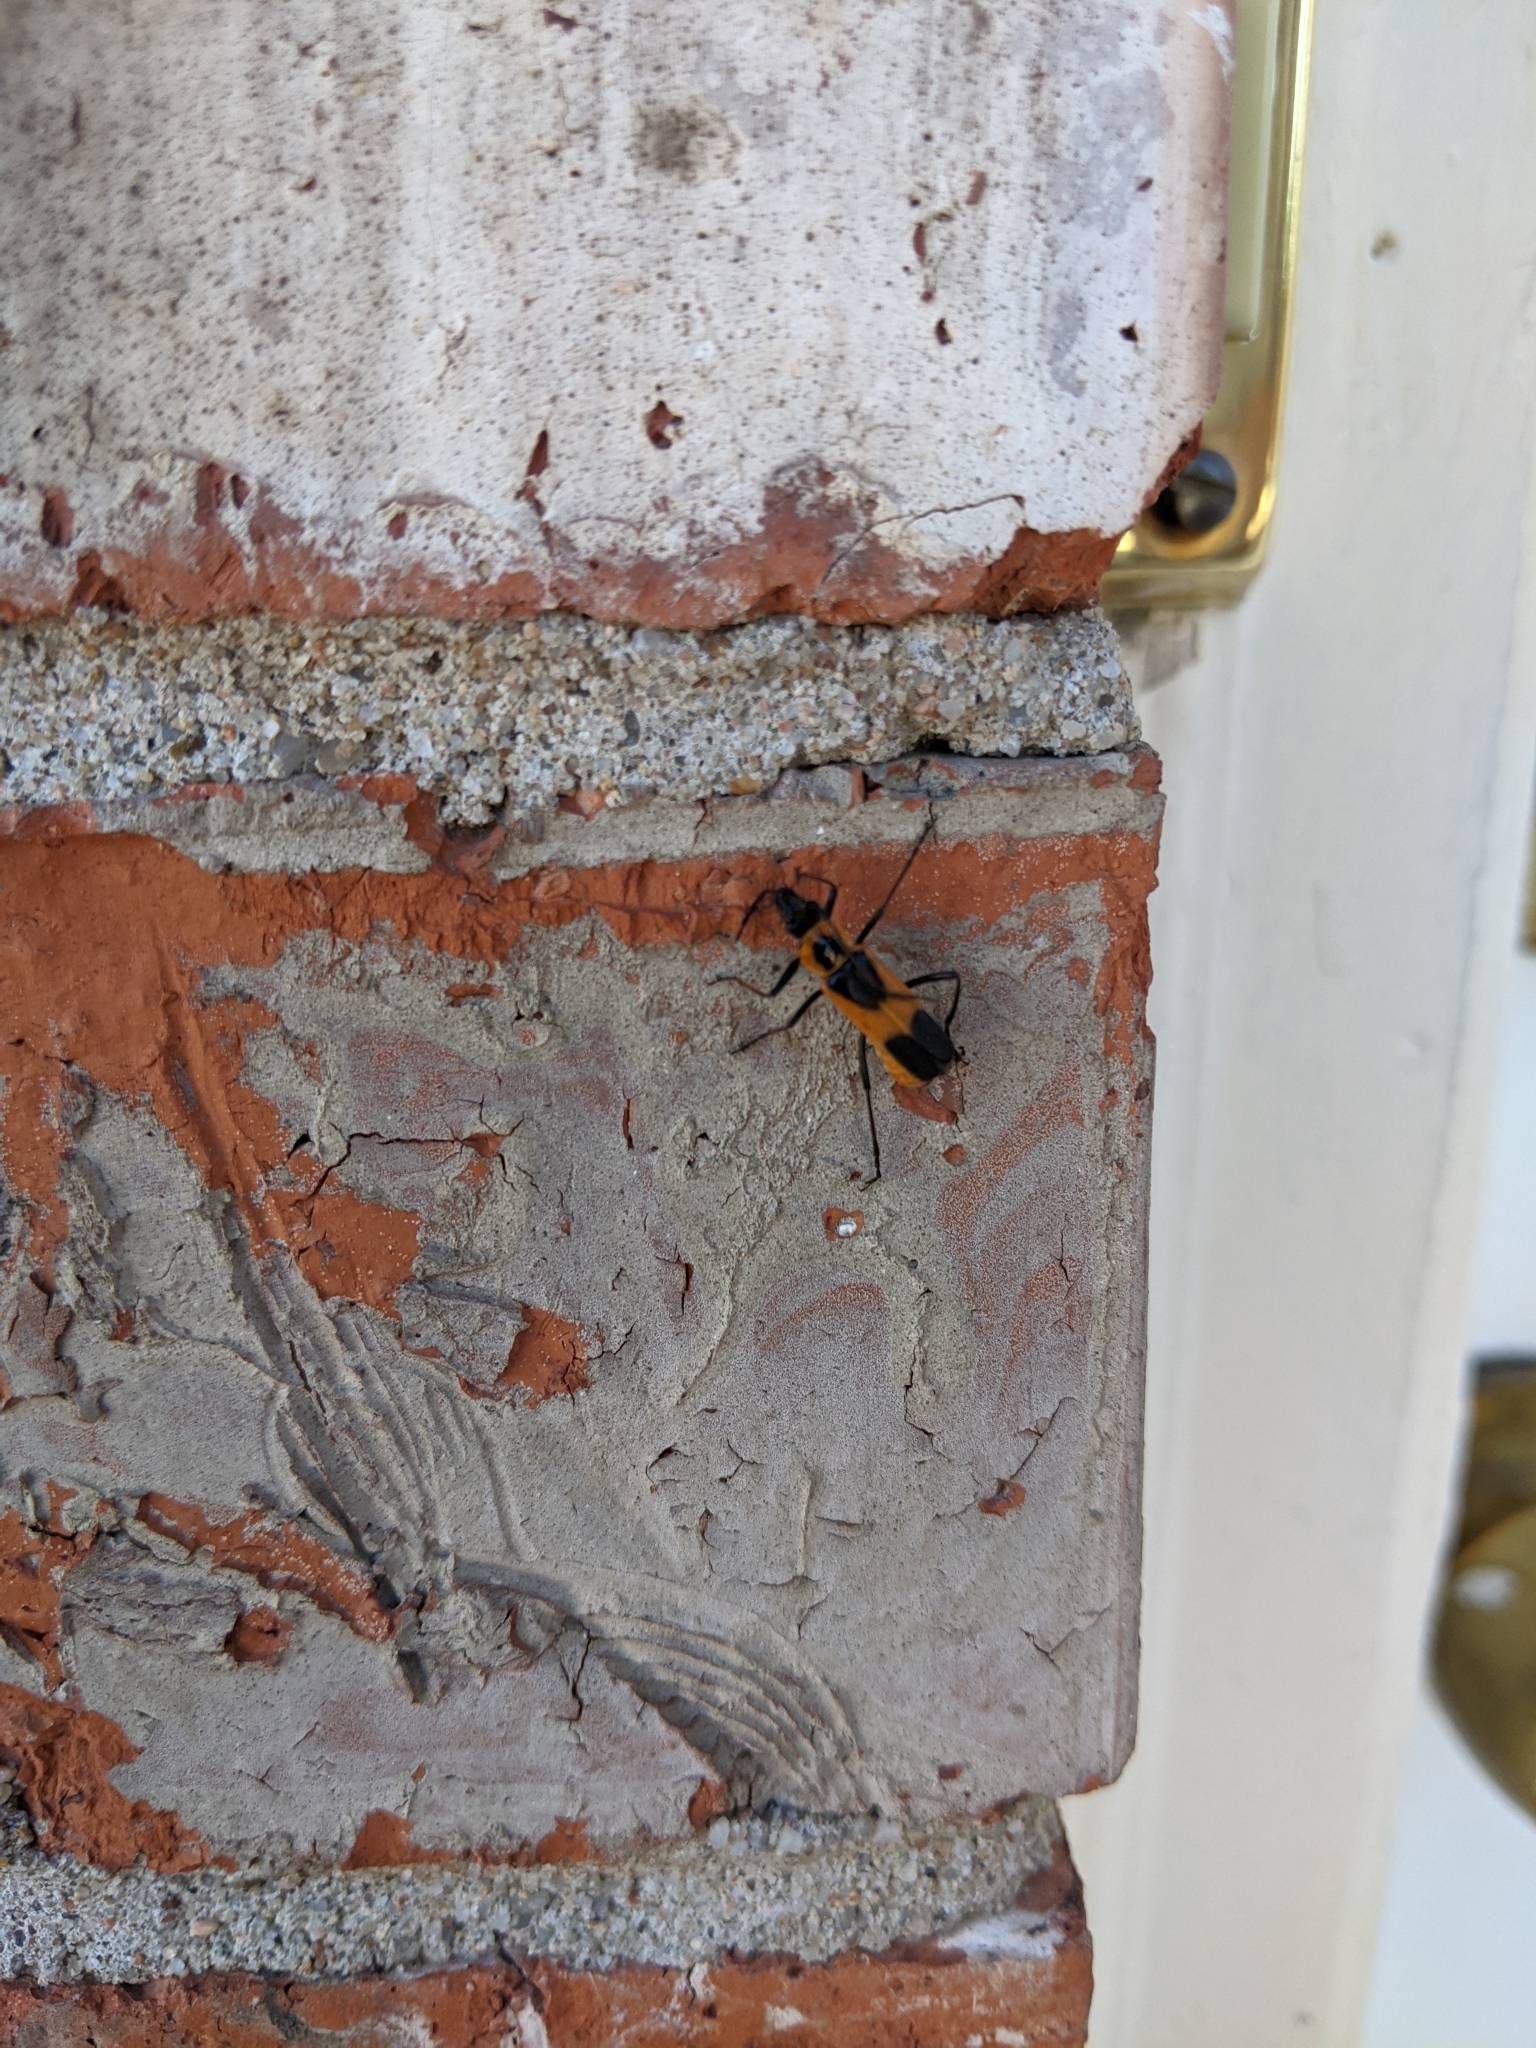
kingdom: Animalia
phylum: Arthropoda
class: Insecta
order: Coleoptera
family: Cantharidae
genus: Chauliognathus
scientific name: Chauliognathus basalis
